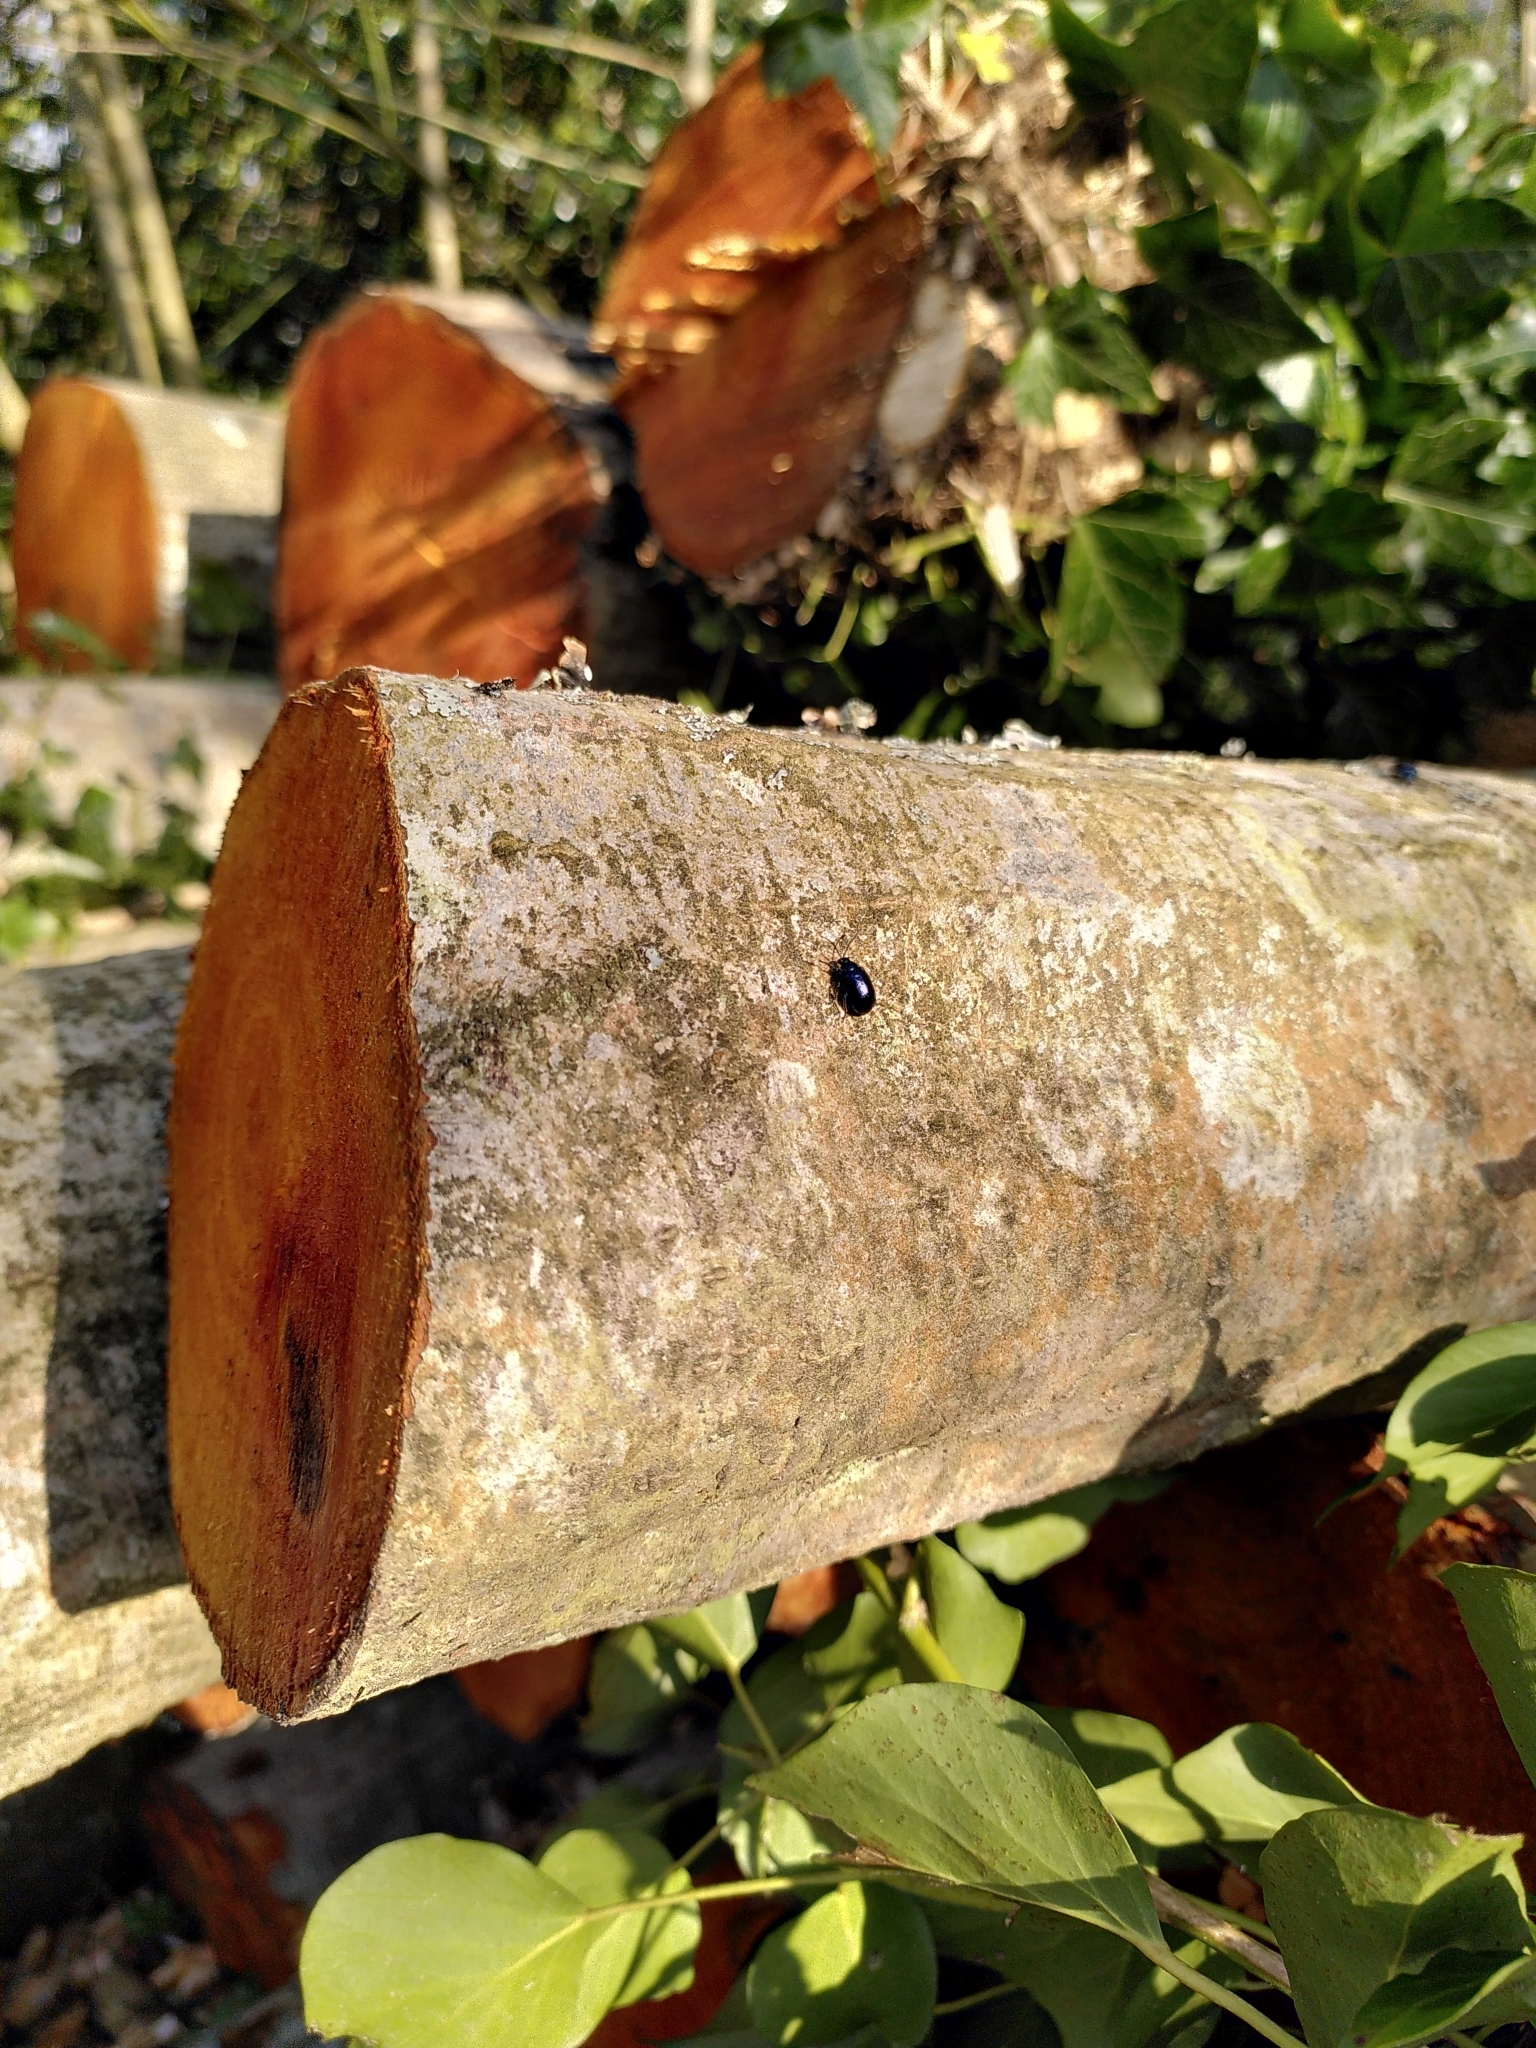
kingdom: Animalia
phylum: Arthropoda
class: Insecta
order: Coleoptera
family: Chrysomelidae
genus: Agelastica
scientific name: Agelastica alni
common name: Alder leaf beetle
